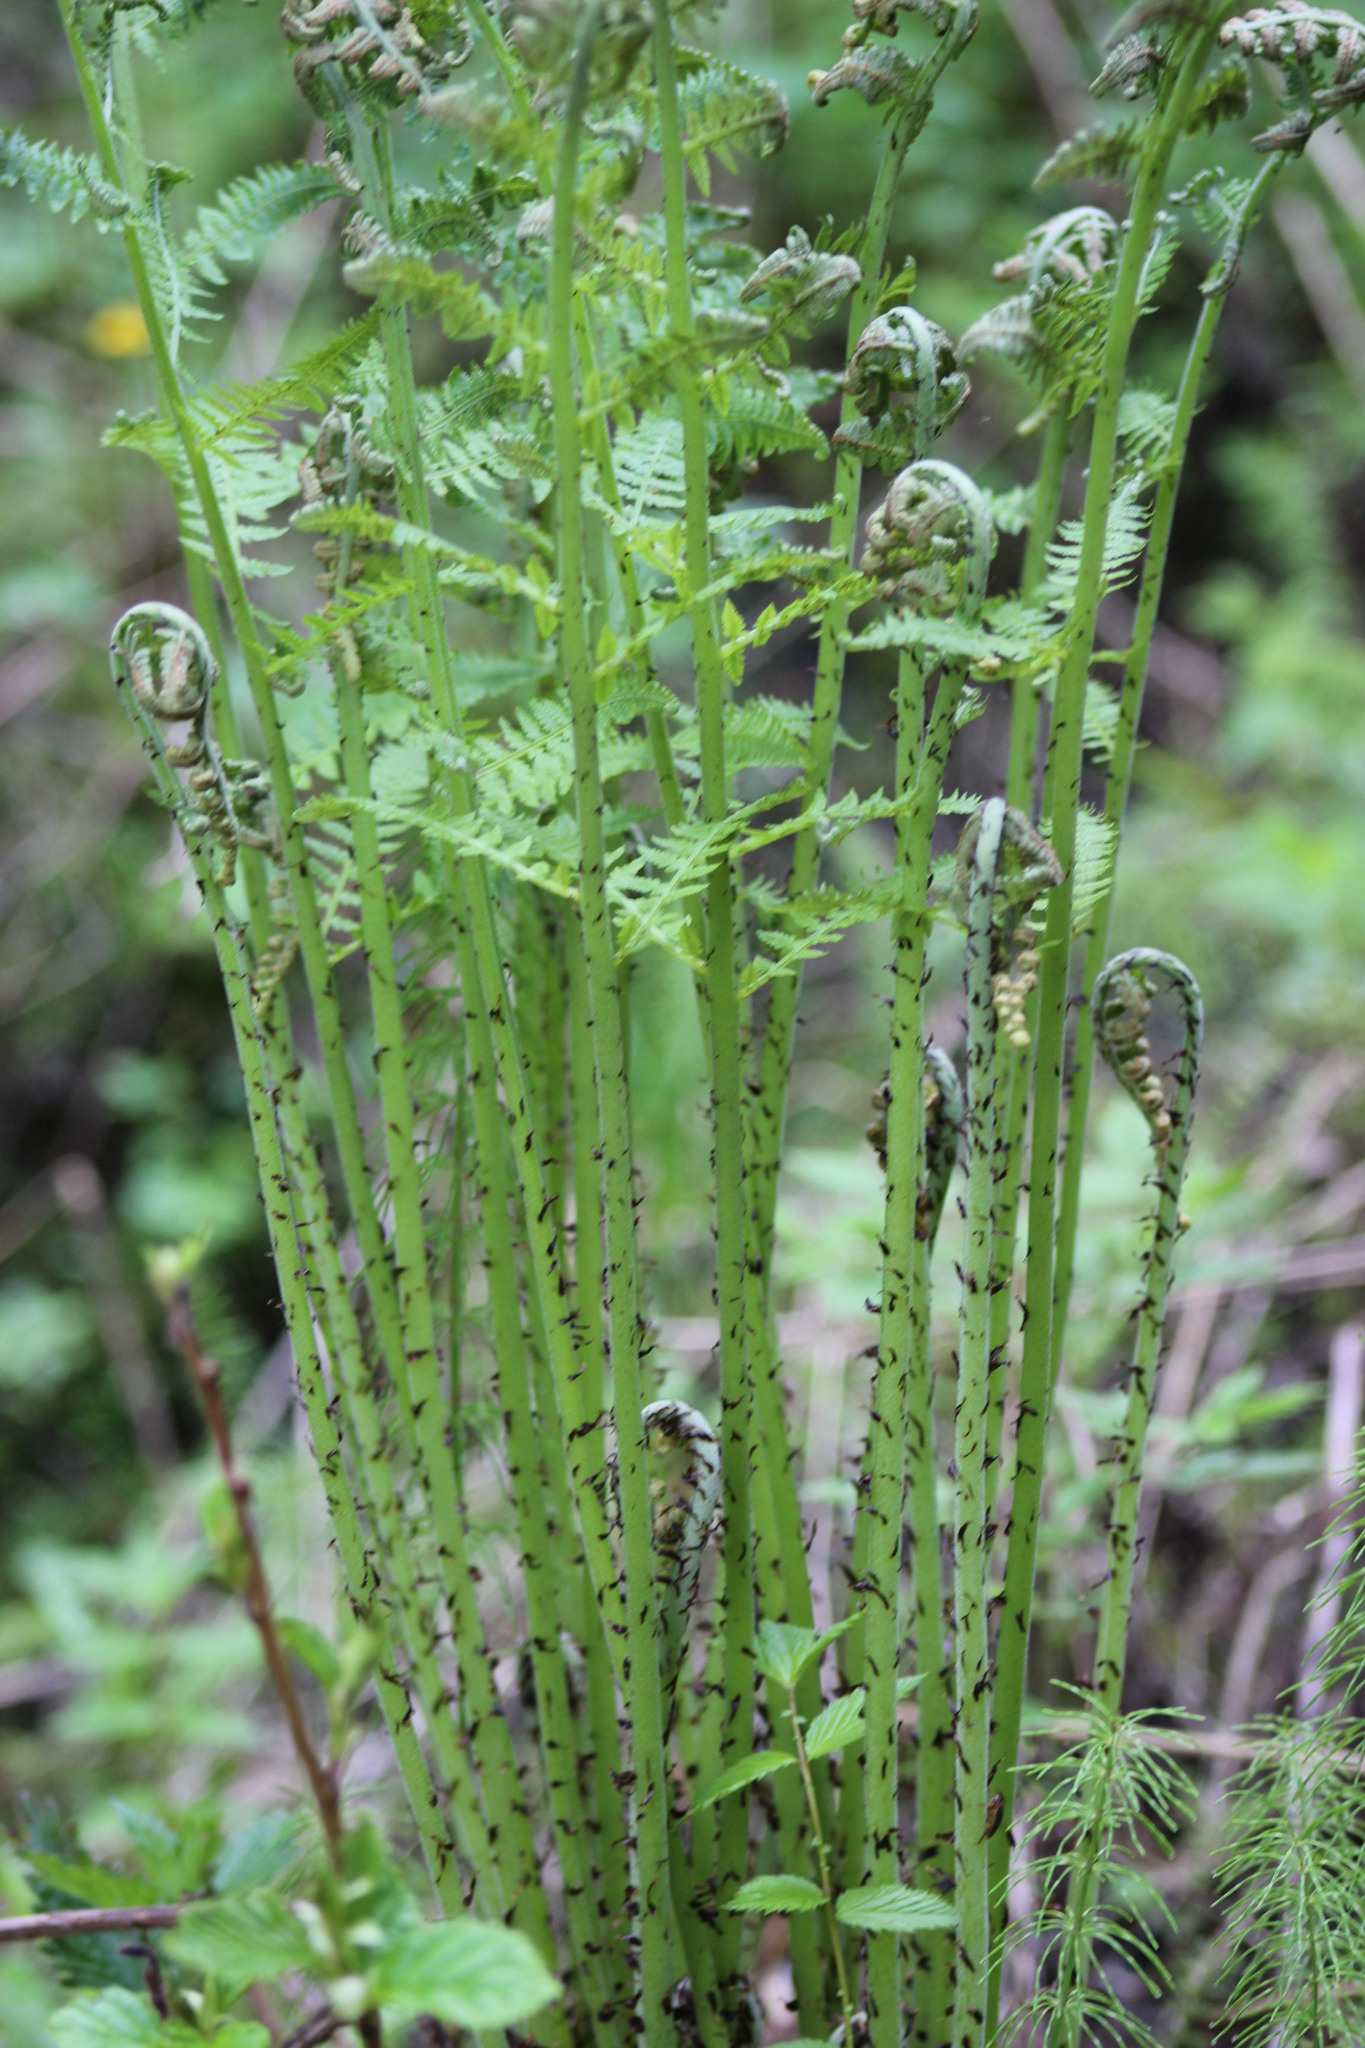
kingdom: Plantae
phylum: Tracheophyta
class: Polypodiopsida
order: Polypodiales
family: Athyriaceae
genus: Athyrium
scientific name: Athyrium filix-femina
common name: Lady fern
